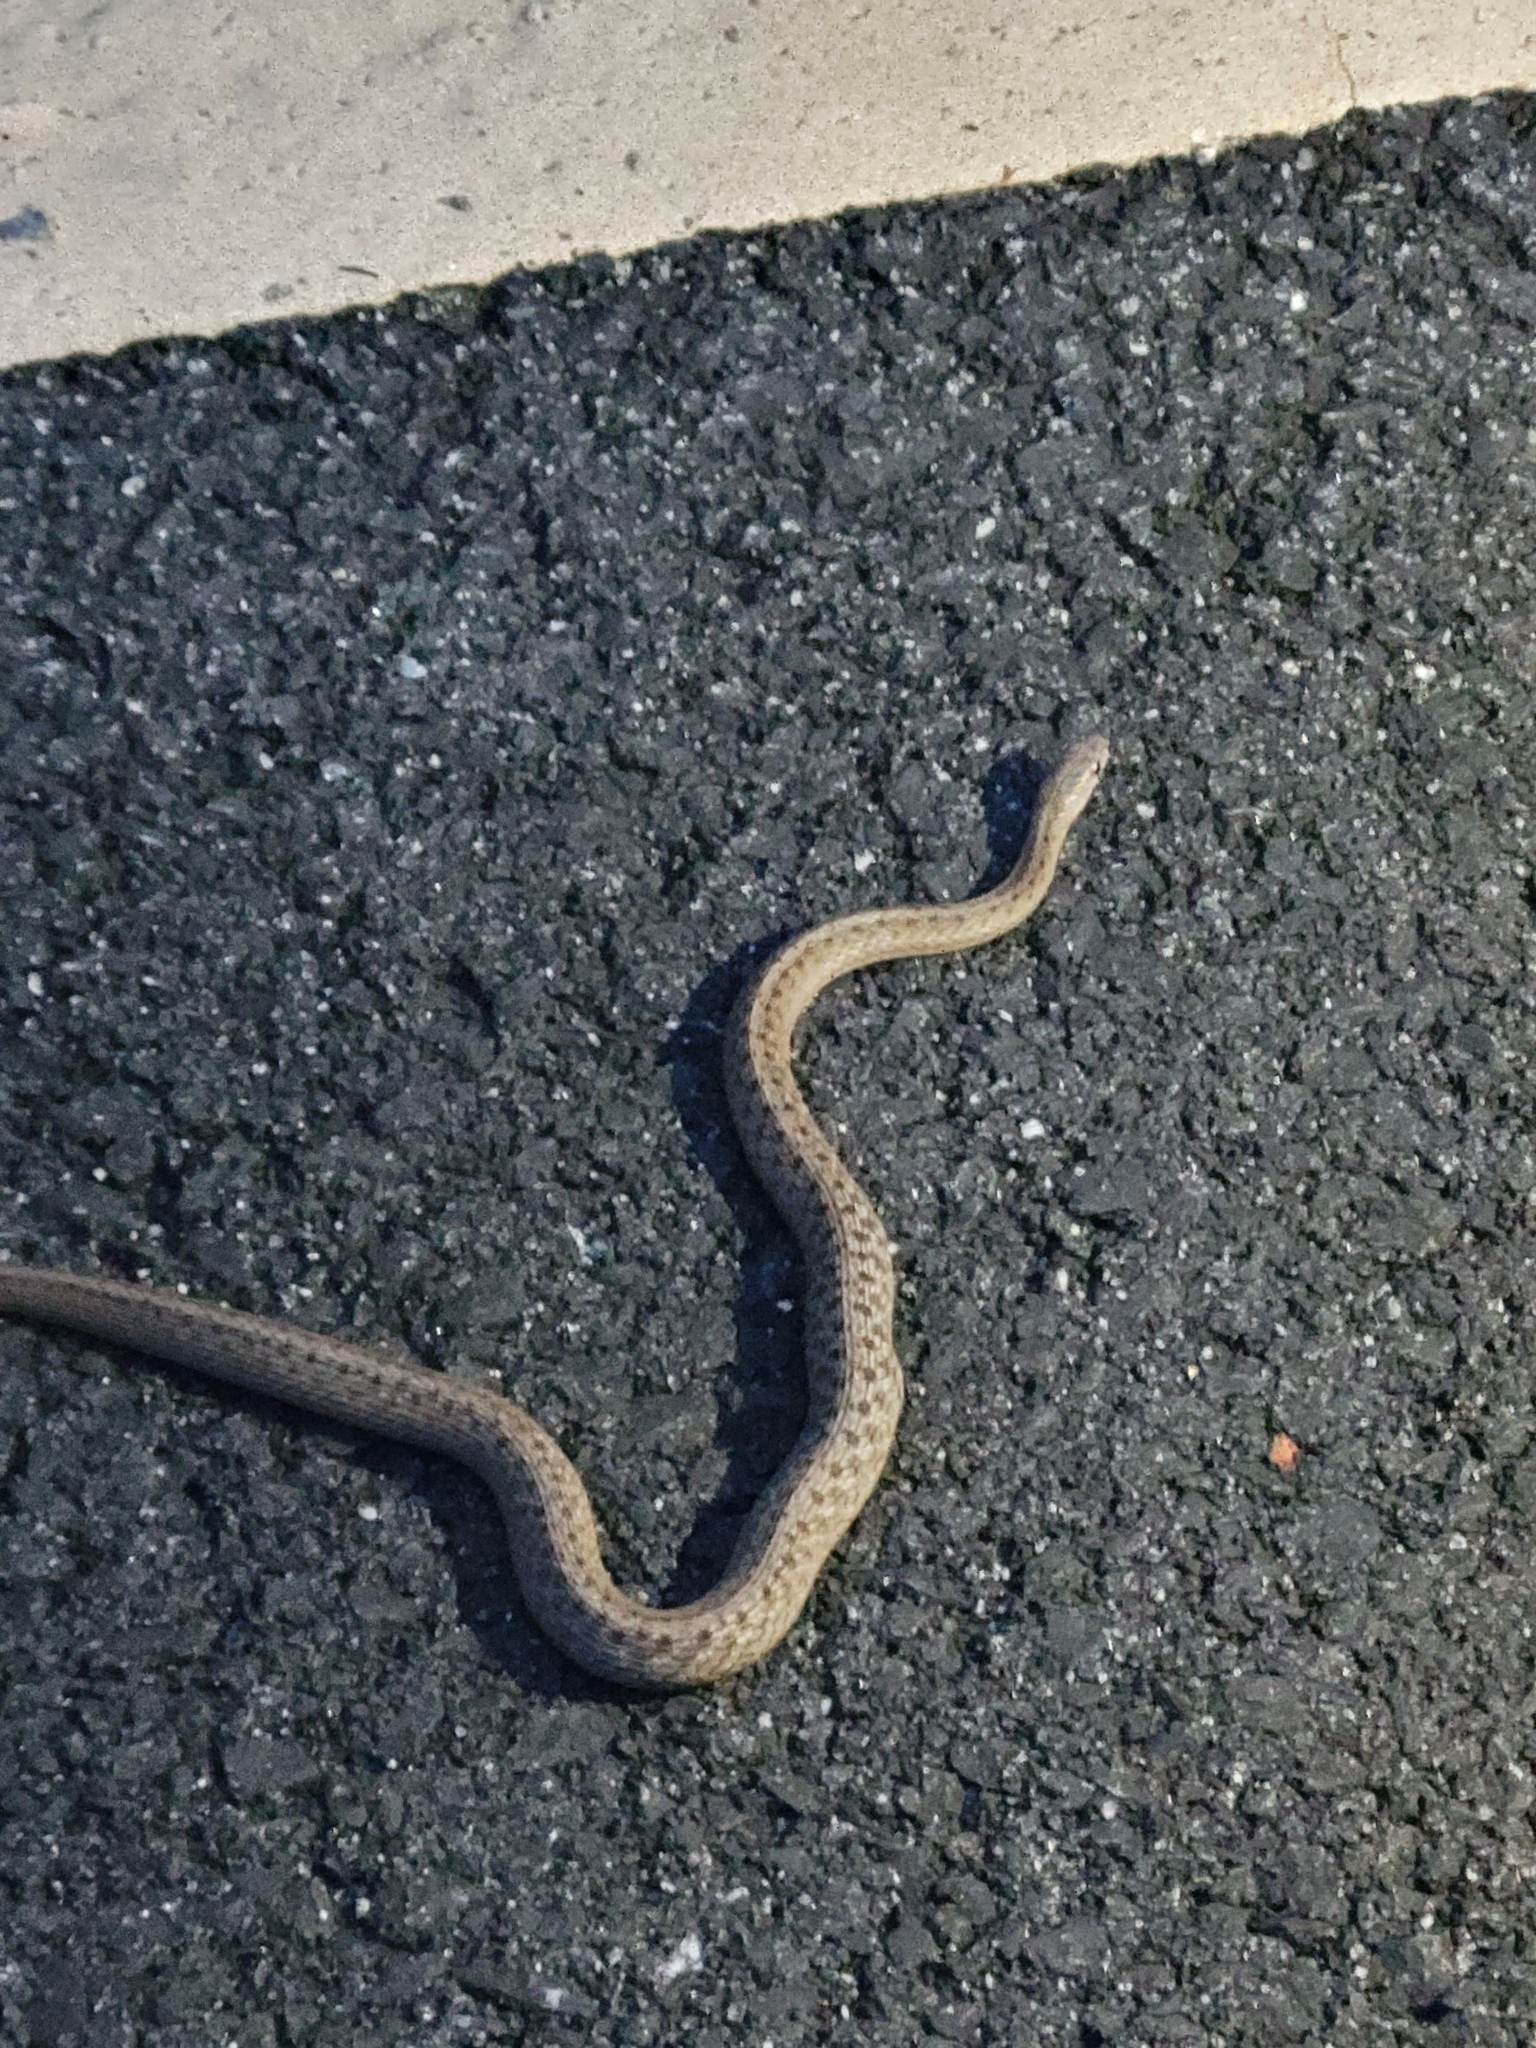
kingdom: Animalia
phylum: Chordata
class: Squamata
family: Colubridae
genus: Storeria
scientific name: Storeria dekayi
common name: (dekay’s) brown snake
